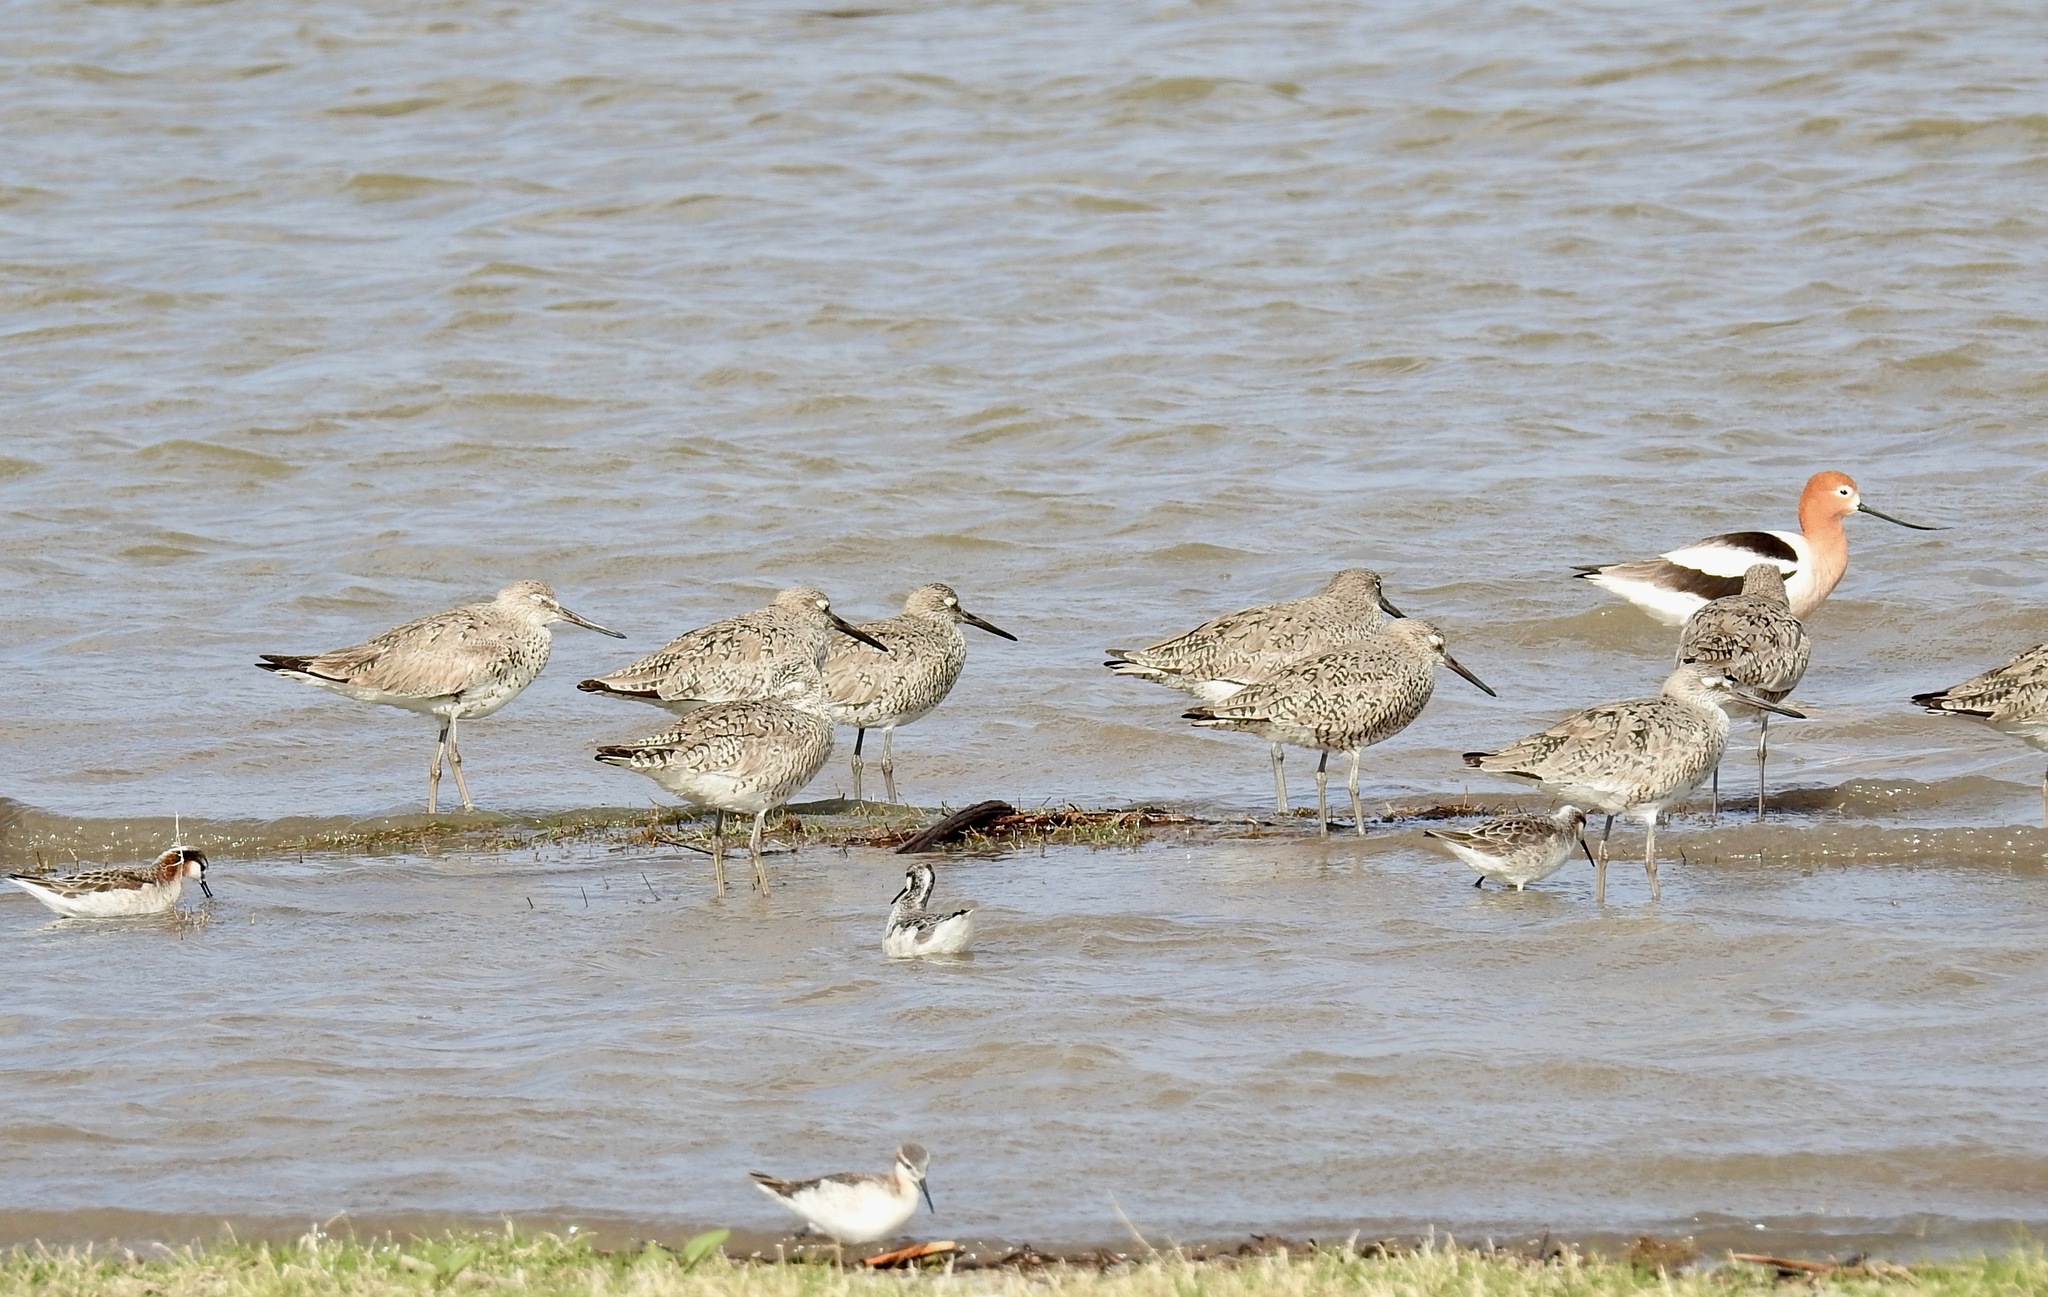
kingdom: Animalia
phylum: Chordata
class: Aves
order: Charadriiformes
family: Scolopacidae
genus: Tringa
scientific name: Tringa semipalmata
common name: Willet
